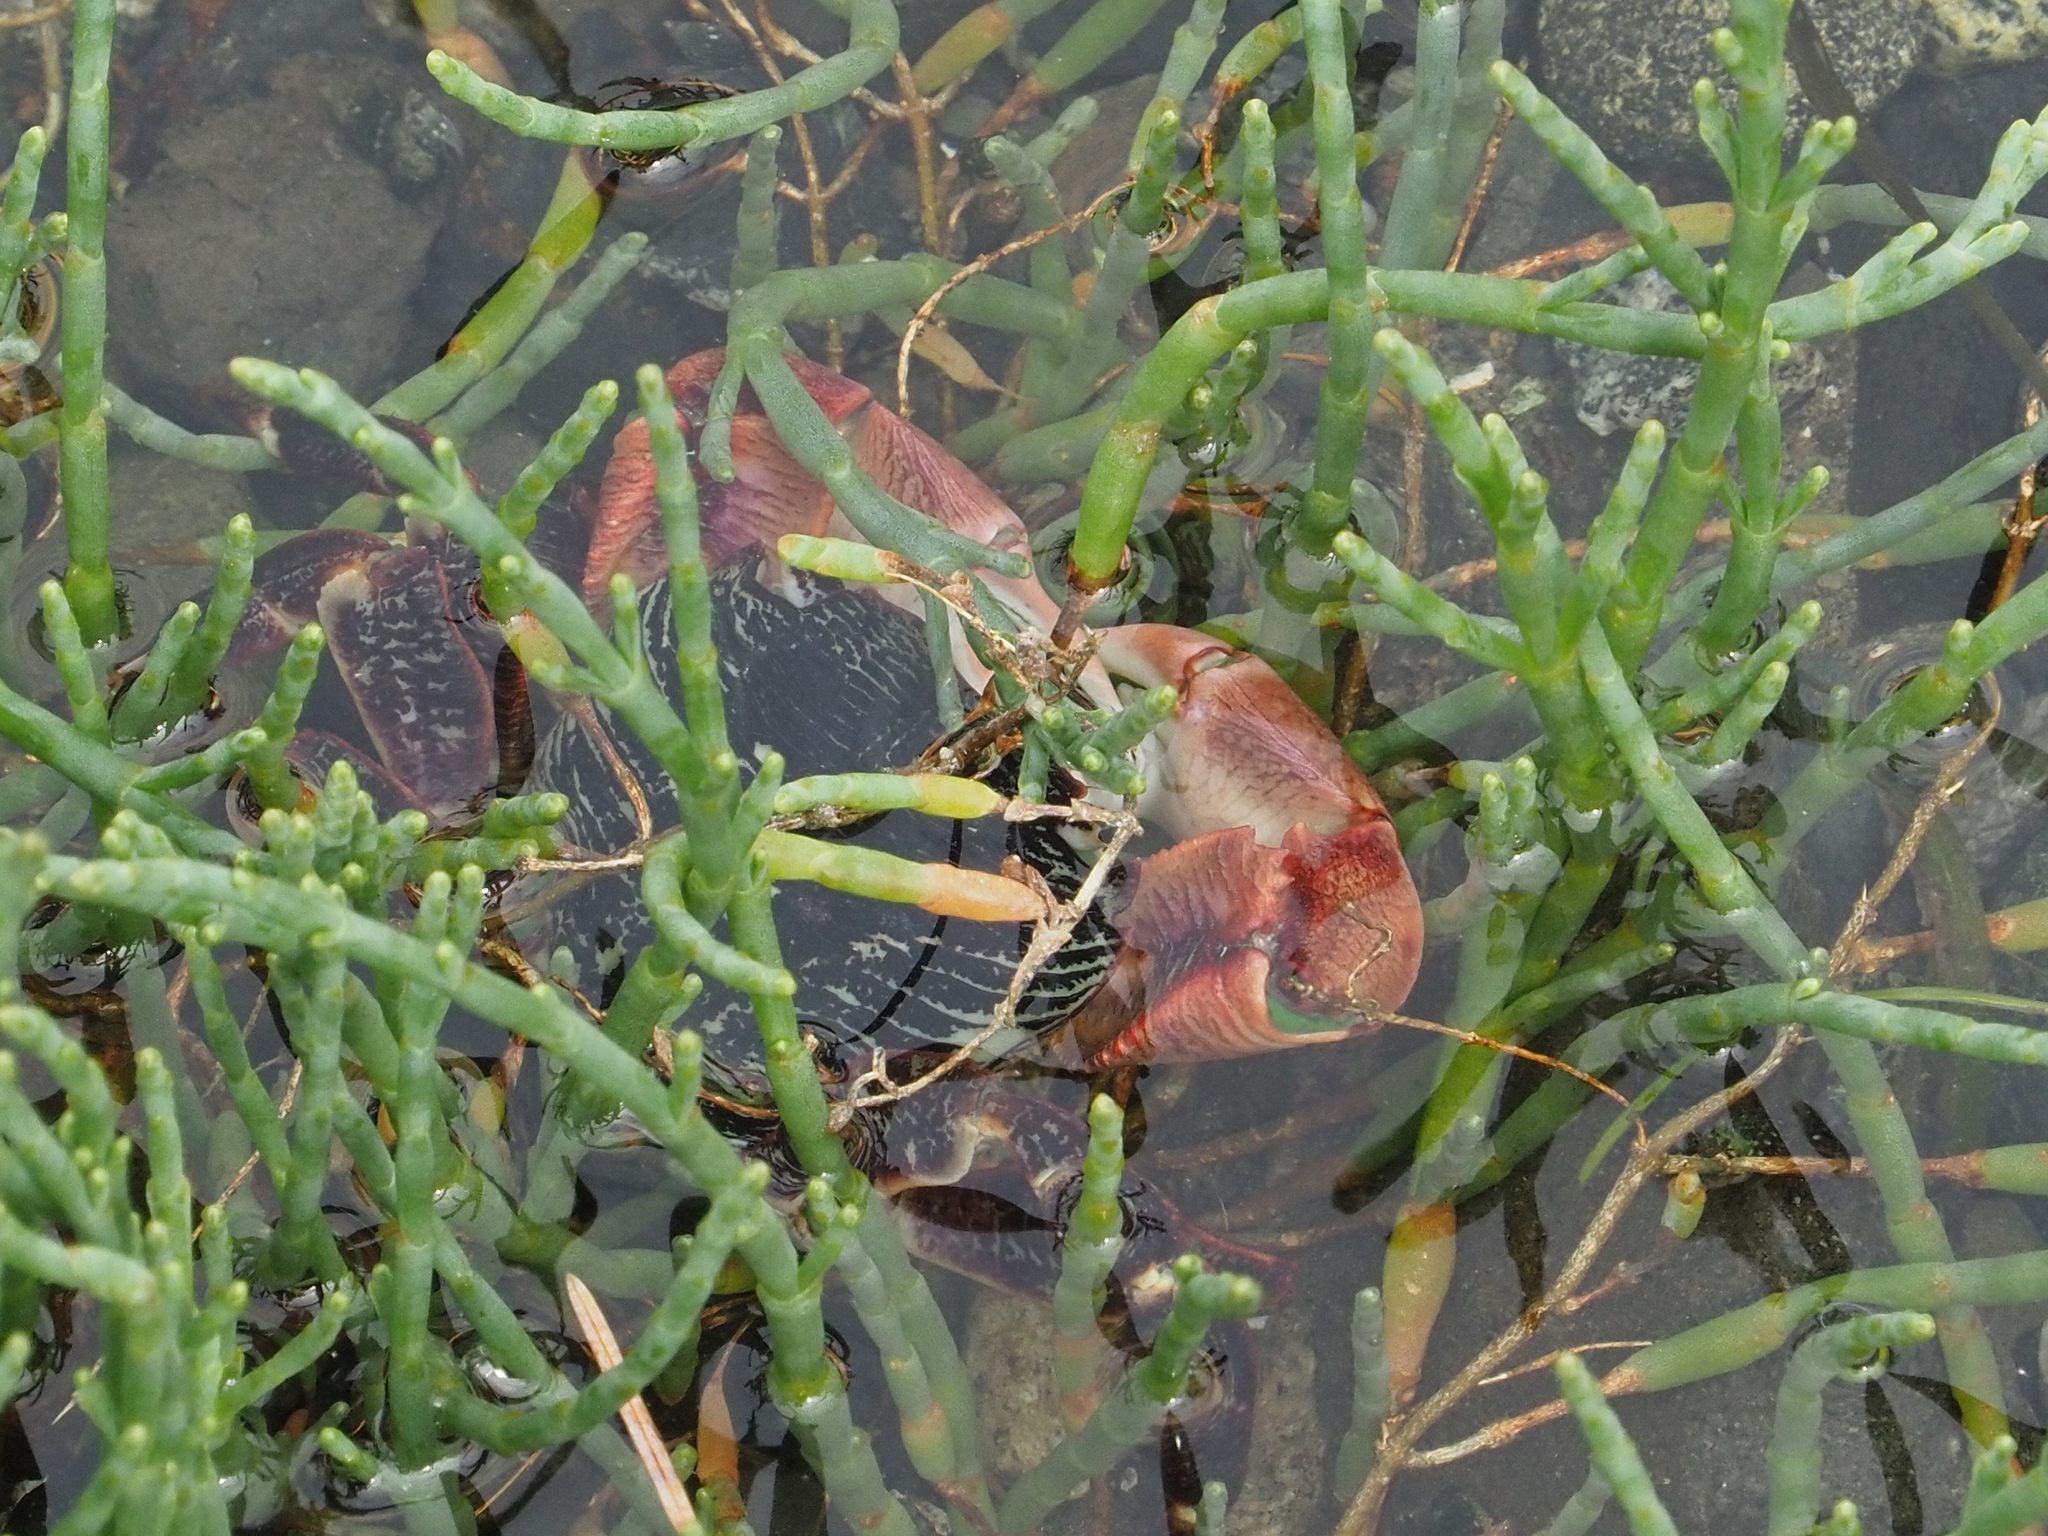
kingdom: Animalia
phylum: Arthropoda
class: Malacostraca
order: Decapoda
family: Grapsidae
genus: Pachygrapsus
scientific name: Pachygrapsus crassipes
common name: Striped shore crab
